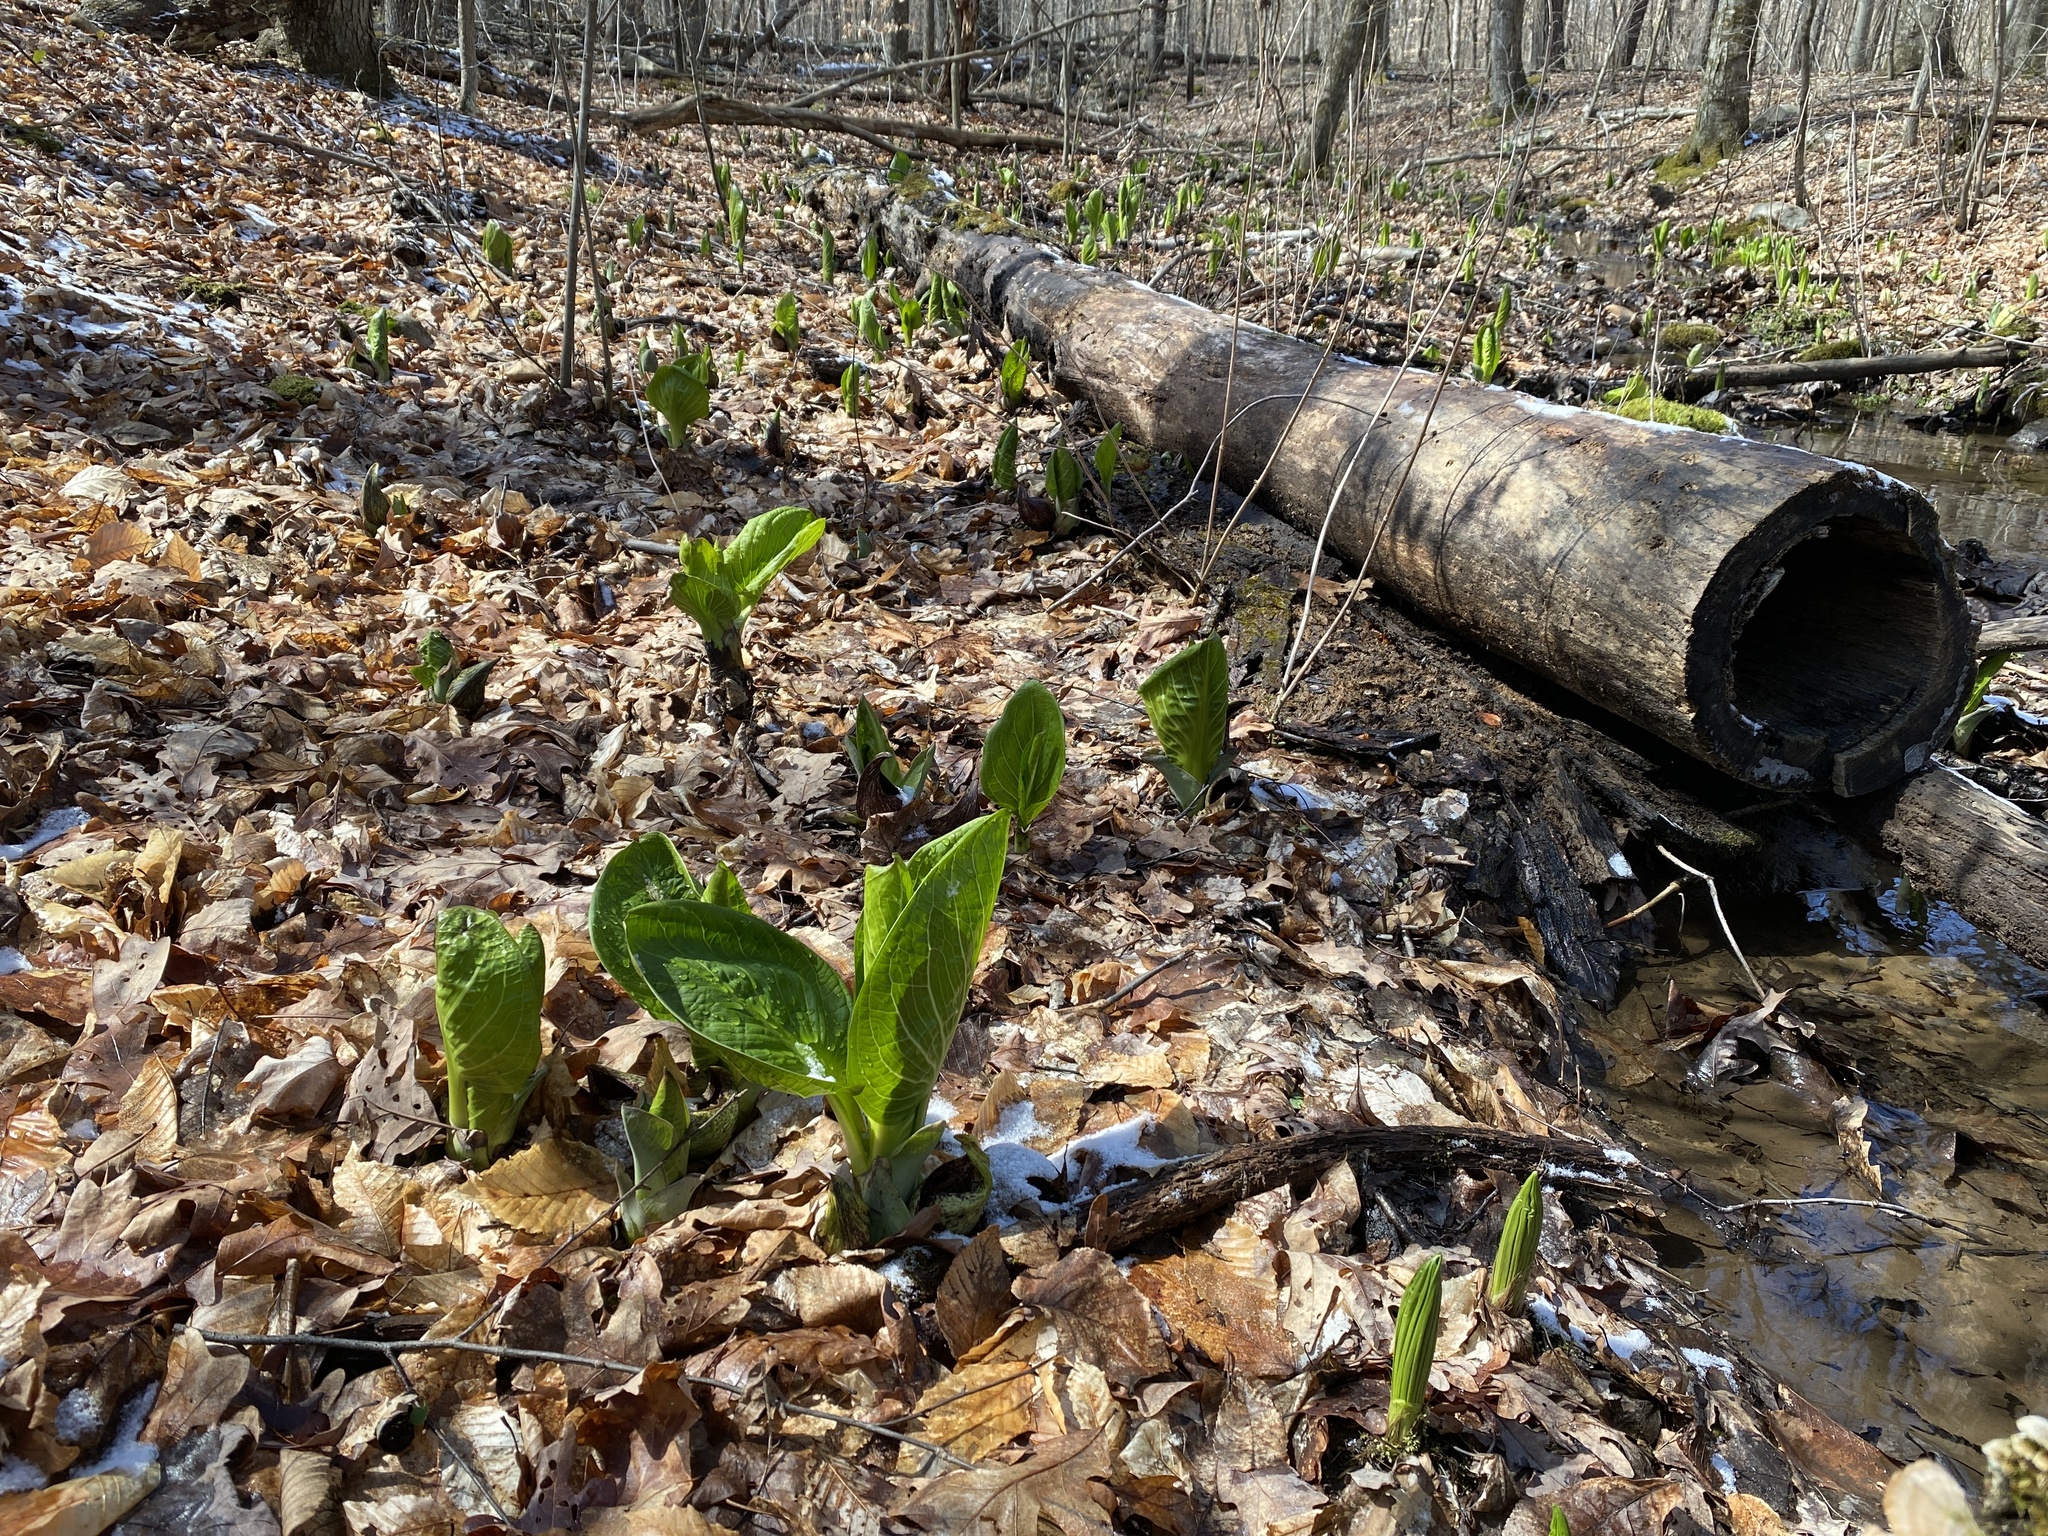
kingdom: Plantae
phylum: Tracheophyta
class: Liliopsida
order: Alismatales
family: Araceae
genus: Symplocarpus
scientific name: Symplocarpus foetidus
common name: Eastern skunk cabbage
